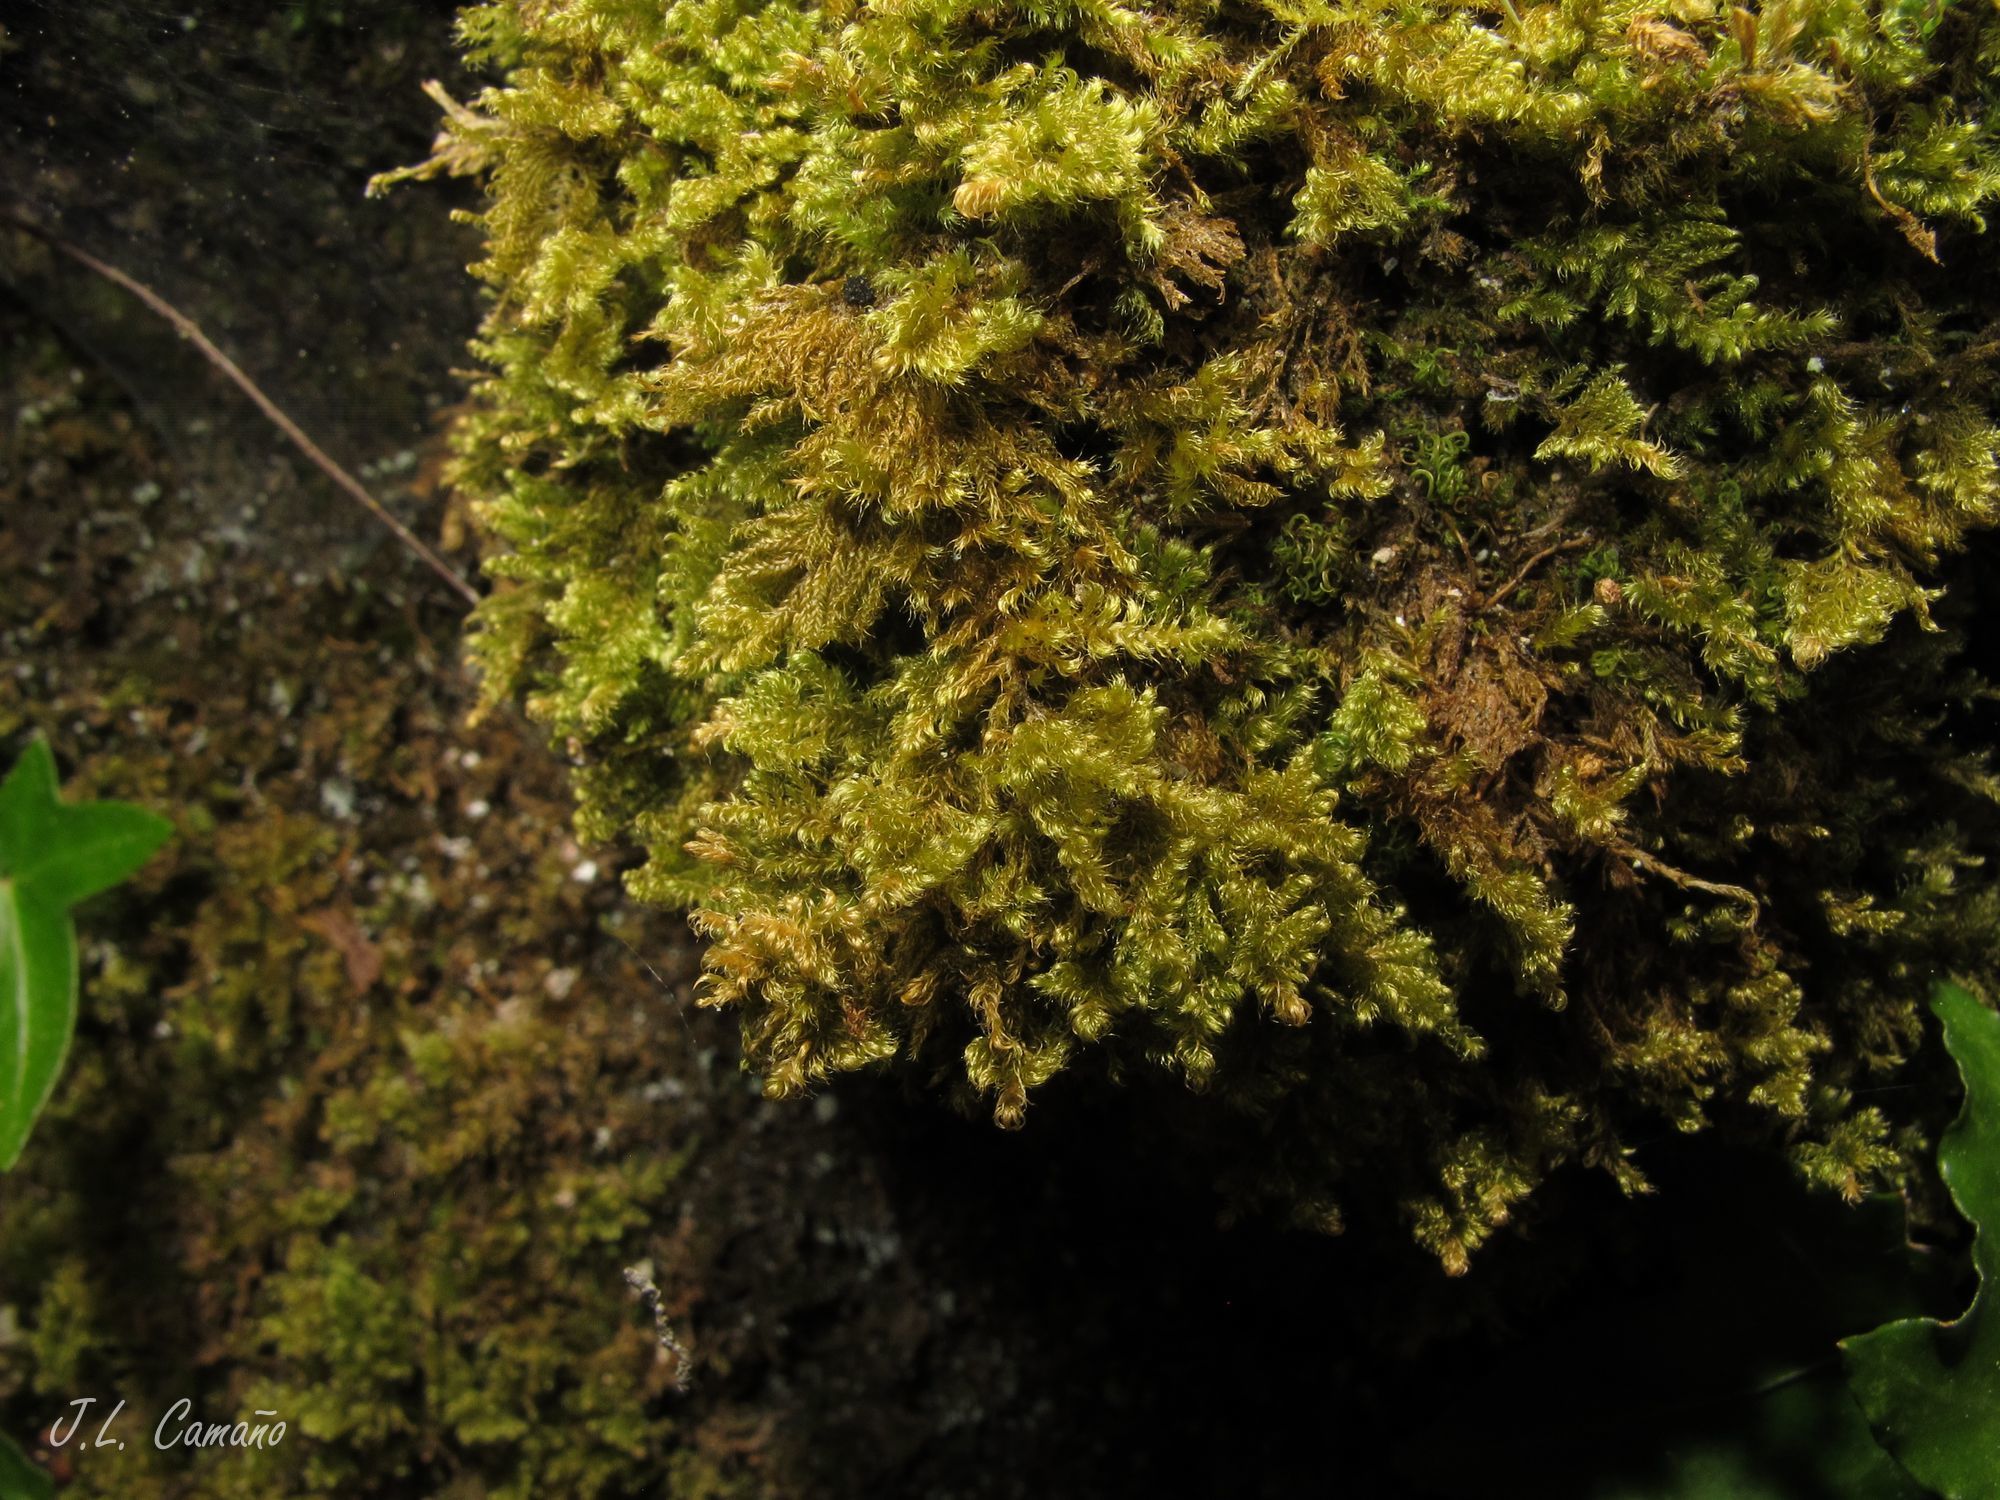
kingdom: Plantae
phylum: Bryophyta
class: Bryopsida
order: Hypnales
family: Myuriaceae
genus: Ctenidium
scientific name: Ctenidium molluscum
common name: Chalk comb-moss
